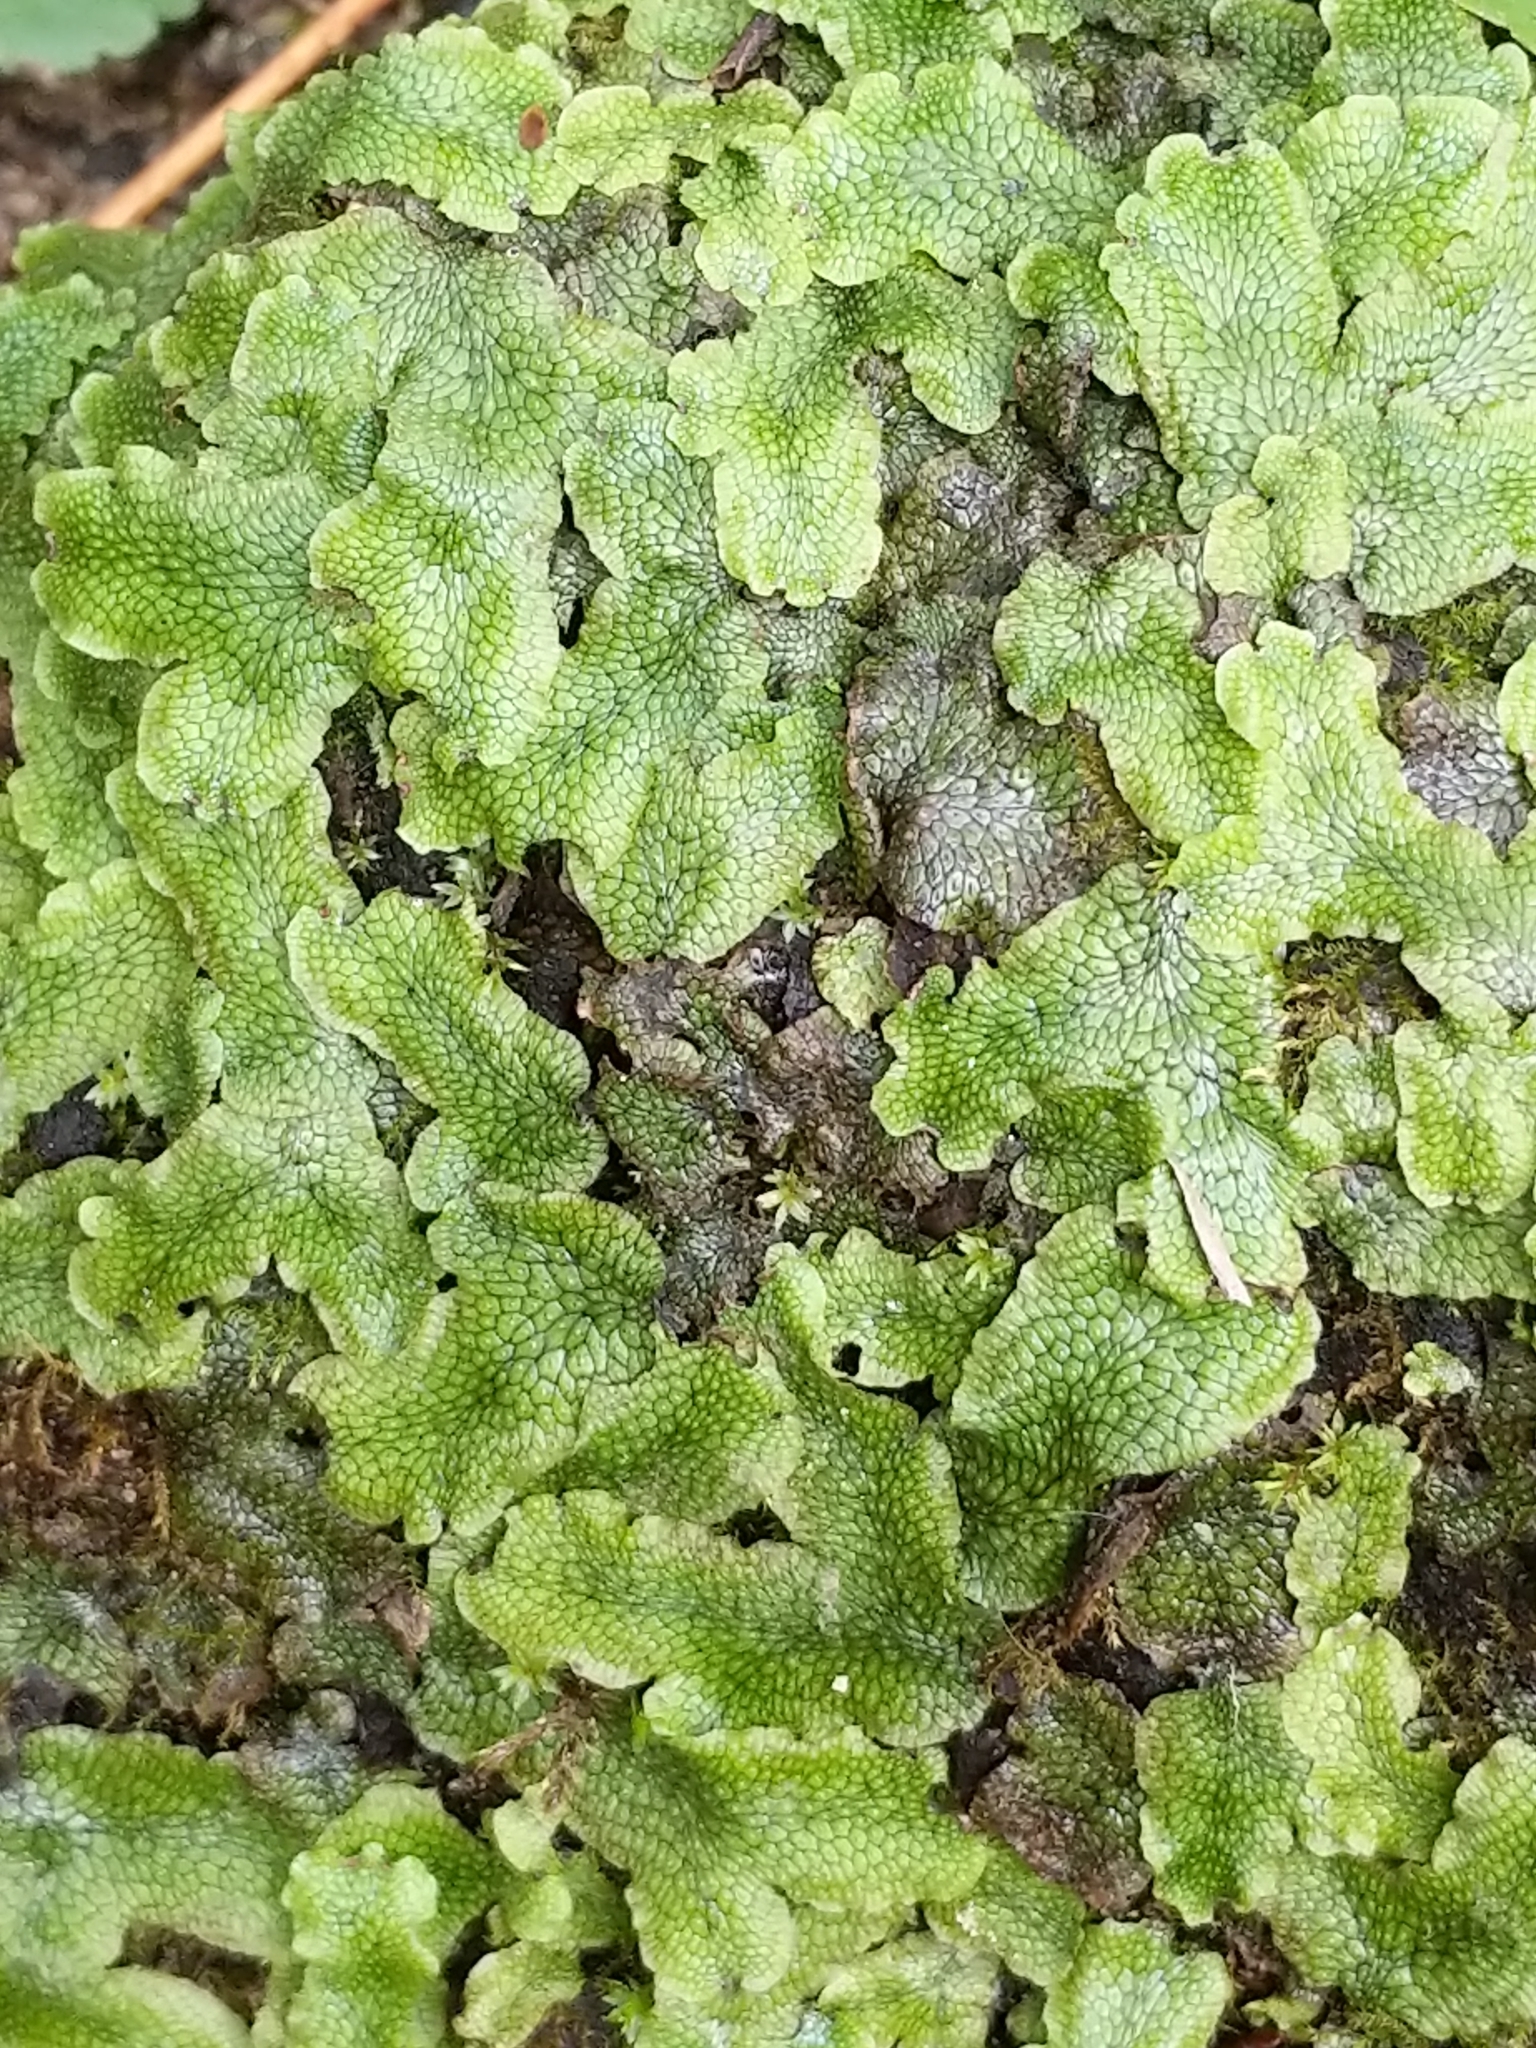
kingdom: Plantae
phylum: Marchantiophyta
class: Marchantiopsida
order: Marchantiales
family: Conocephalaceae
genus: Conocephalum
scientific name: Conocephalum salebrosum
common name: Cat-tongue liverwort
